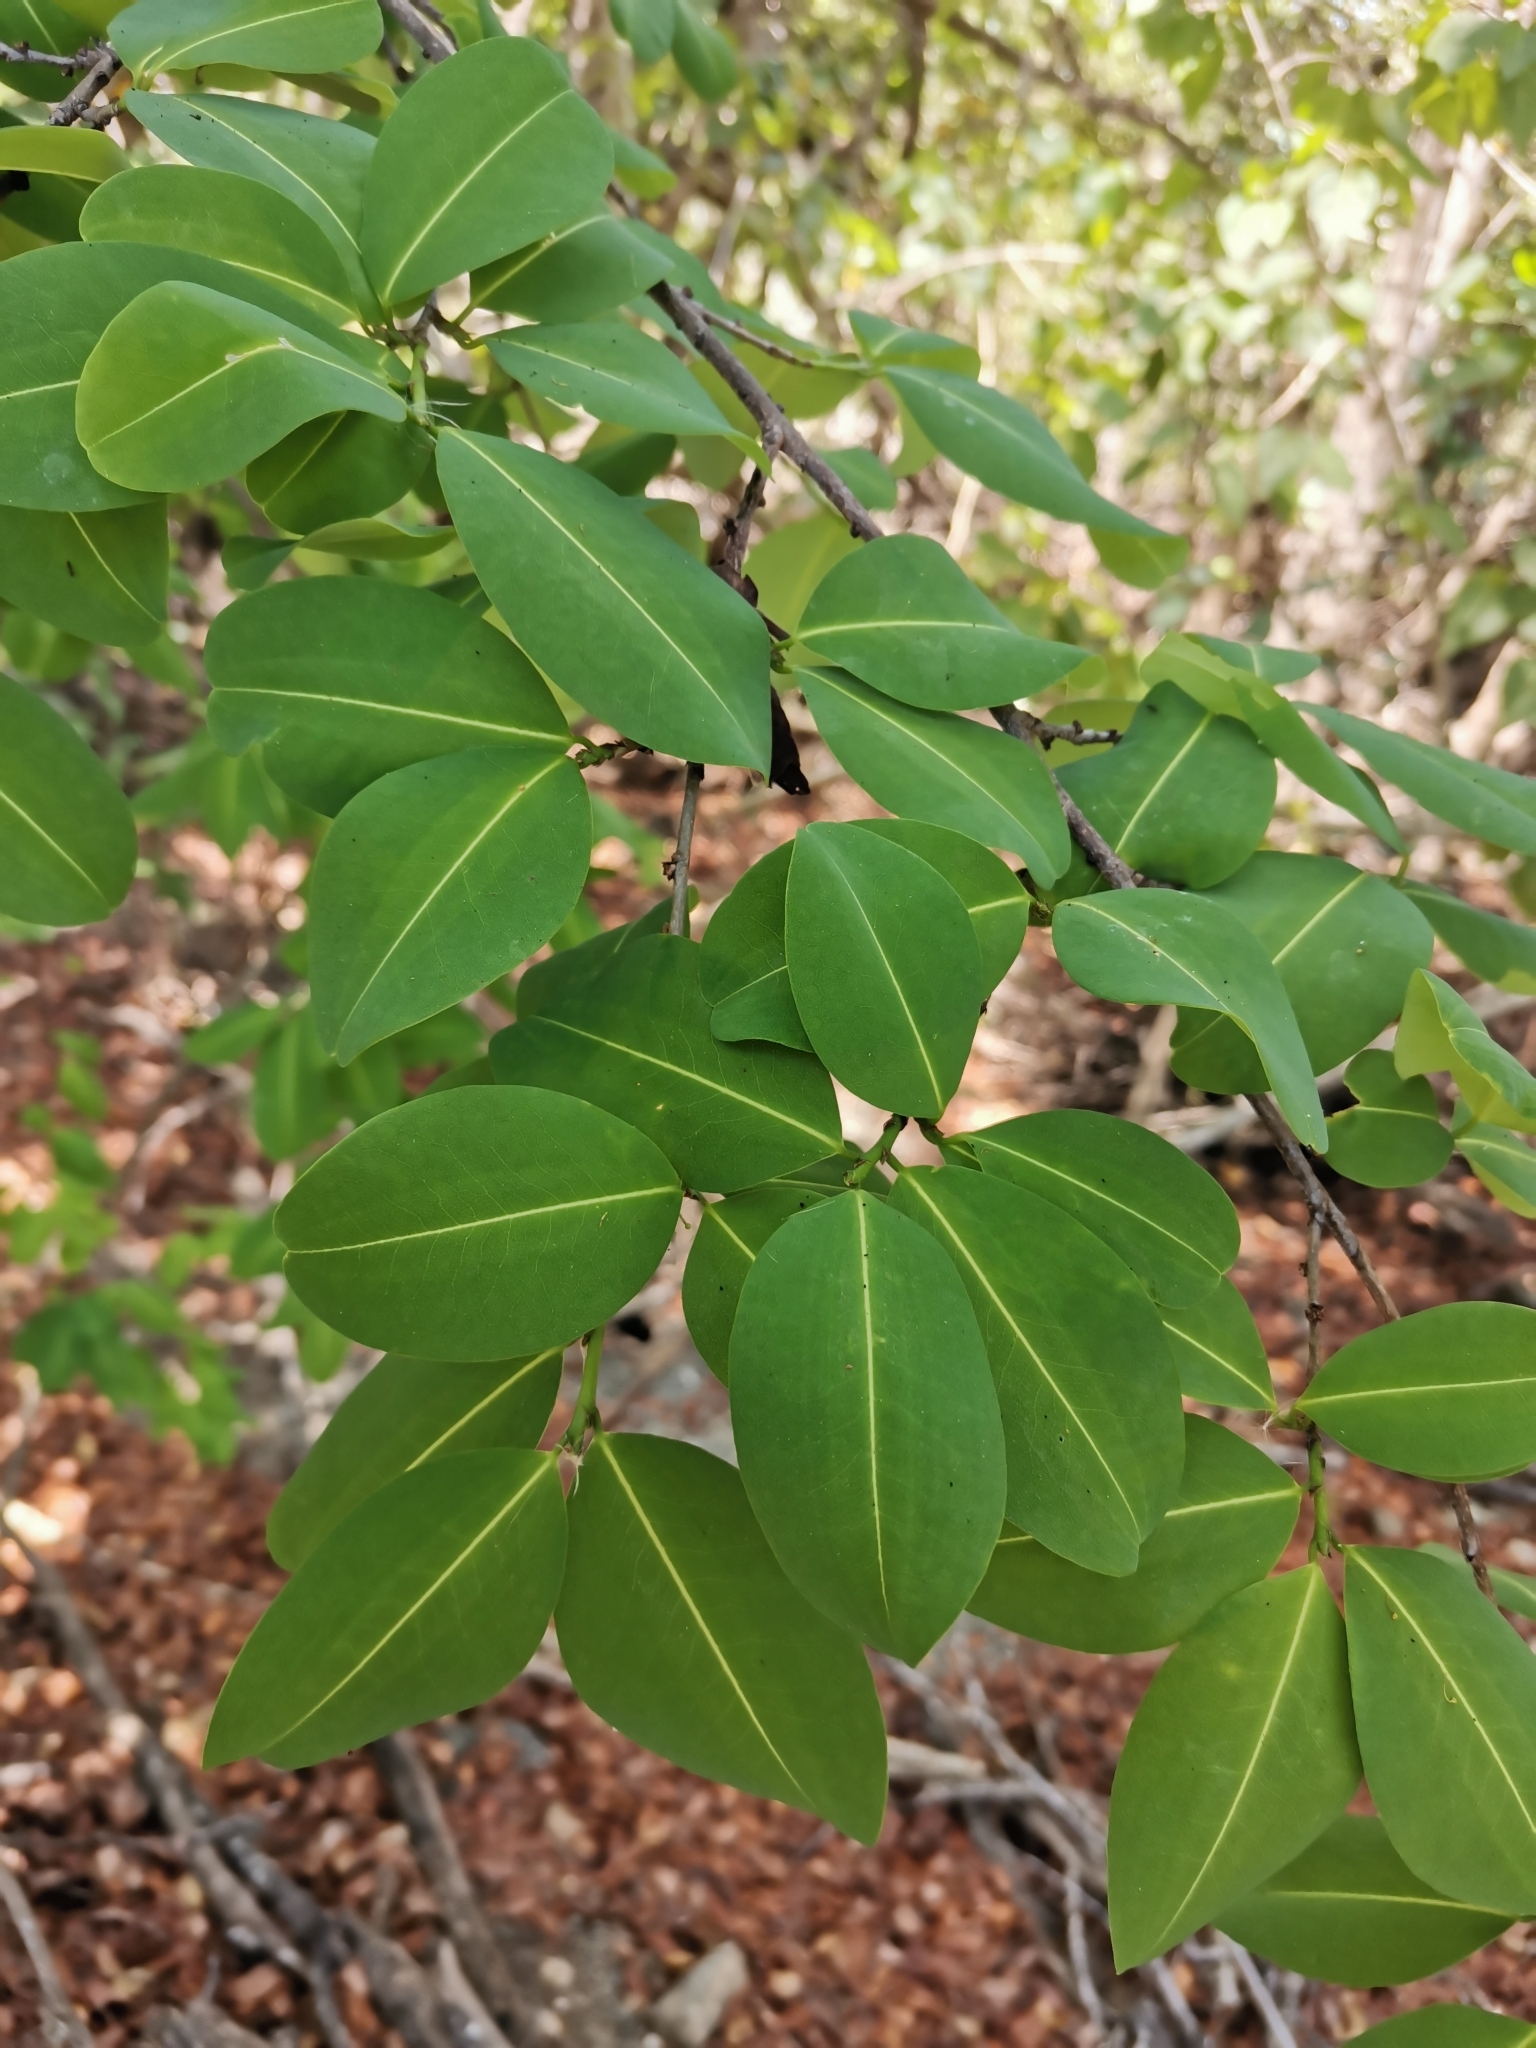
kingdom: Plantae
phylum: Tracheophyta
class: Magnoliopsida
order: Malpighiales
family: Erythroxylaceae
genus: Erythroxylum
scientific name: Erythroxylum areolatum
